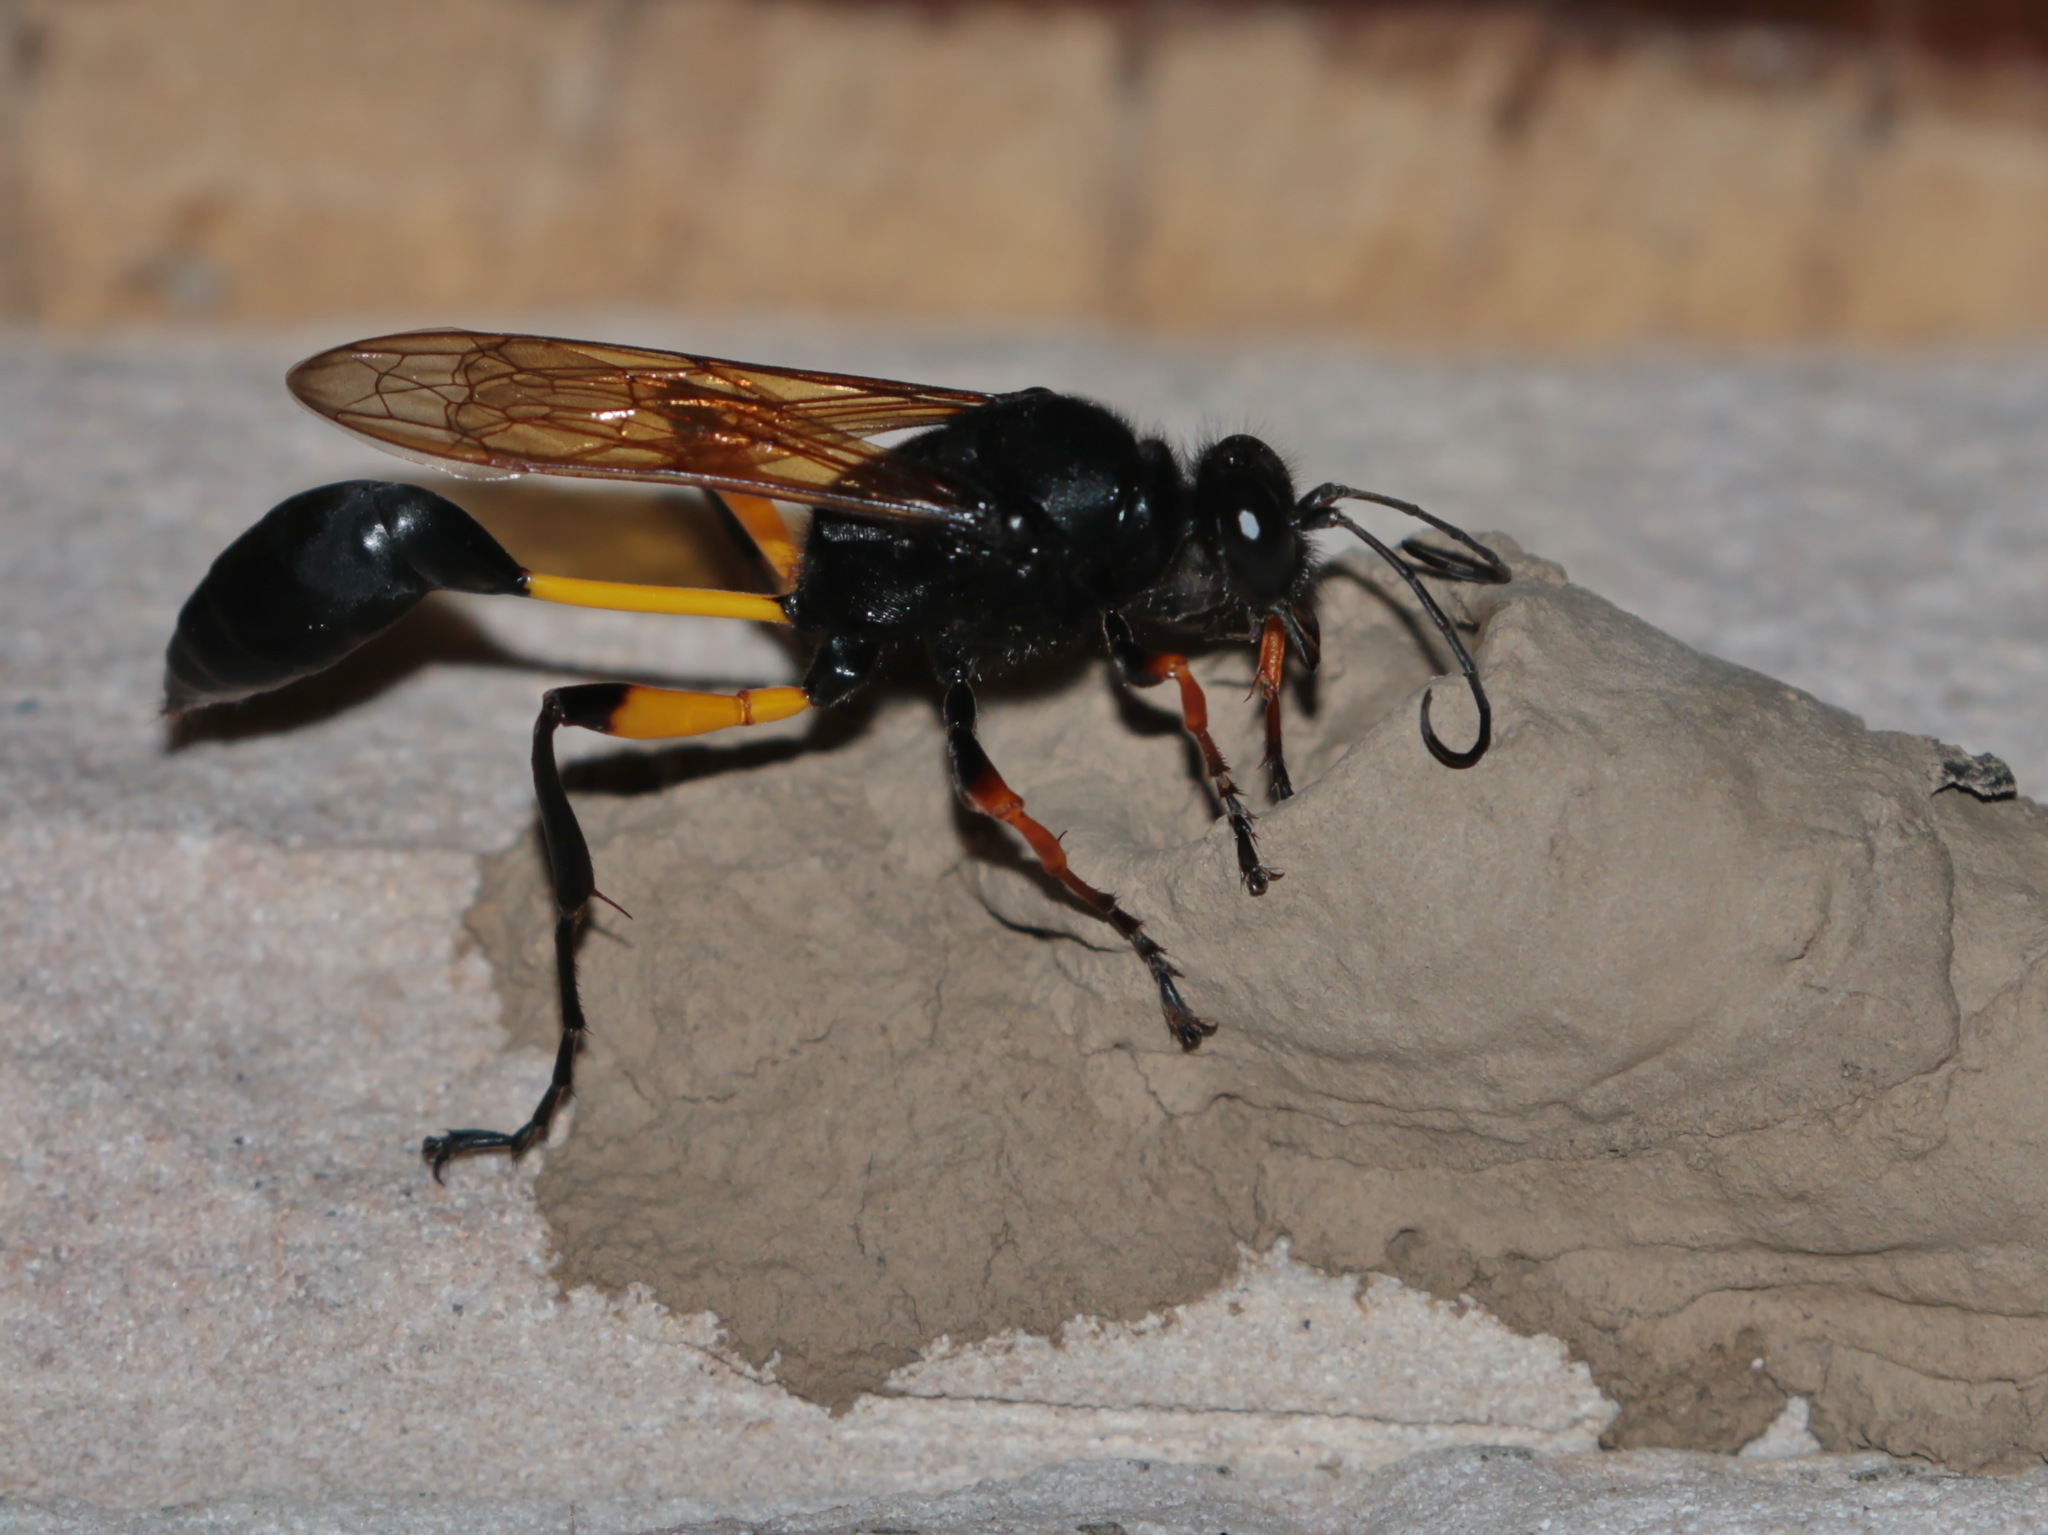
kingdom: Animalia
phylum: Arthropoda
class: Insecta
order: Hymenoptera
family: Sphecidae
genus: Sceliphron
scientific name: Sceliphron javanum
